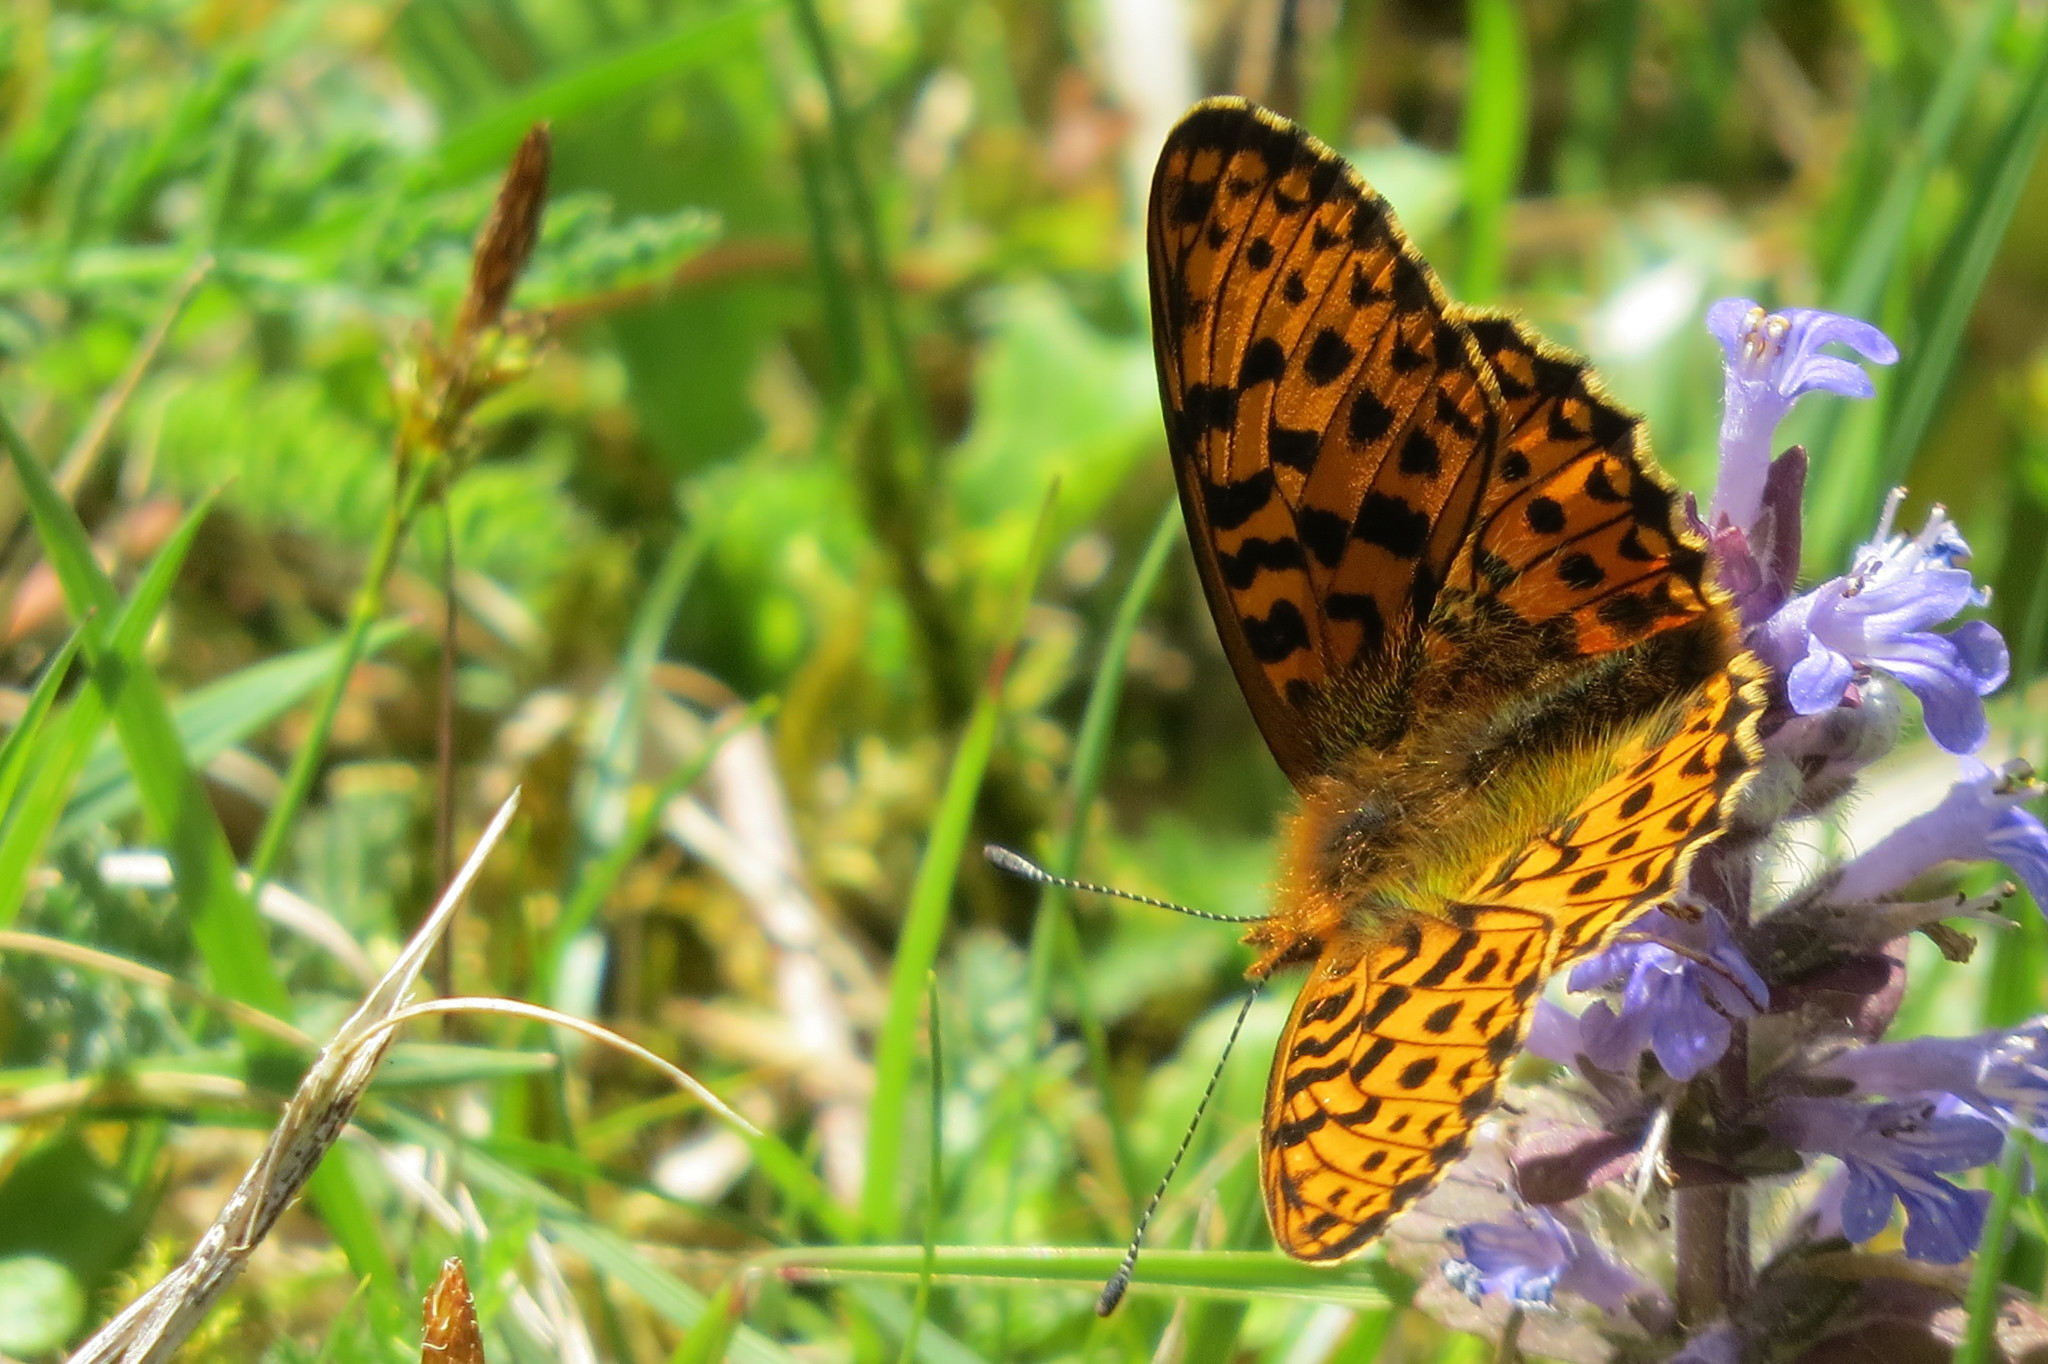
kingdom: Animalia
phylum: Arthropoda
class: Insecta
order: Lepidoptera
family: Nymphalidae
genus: Clossiana
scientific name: Clossiana euphrosyne
